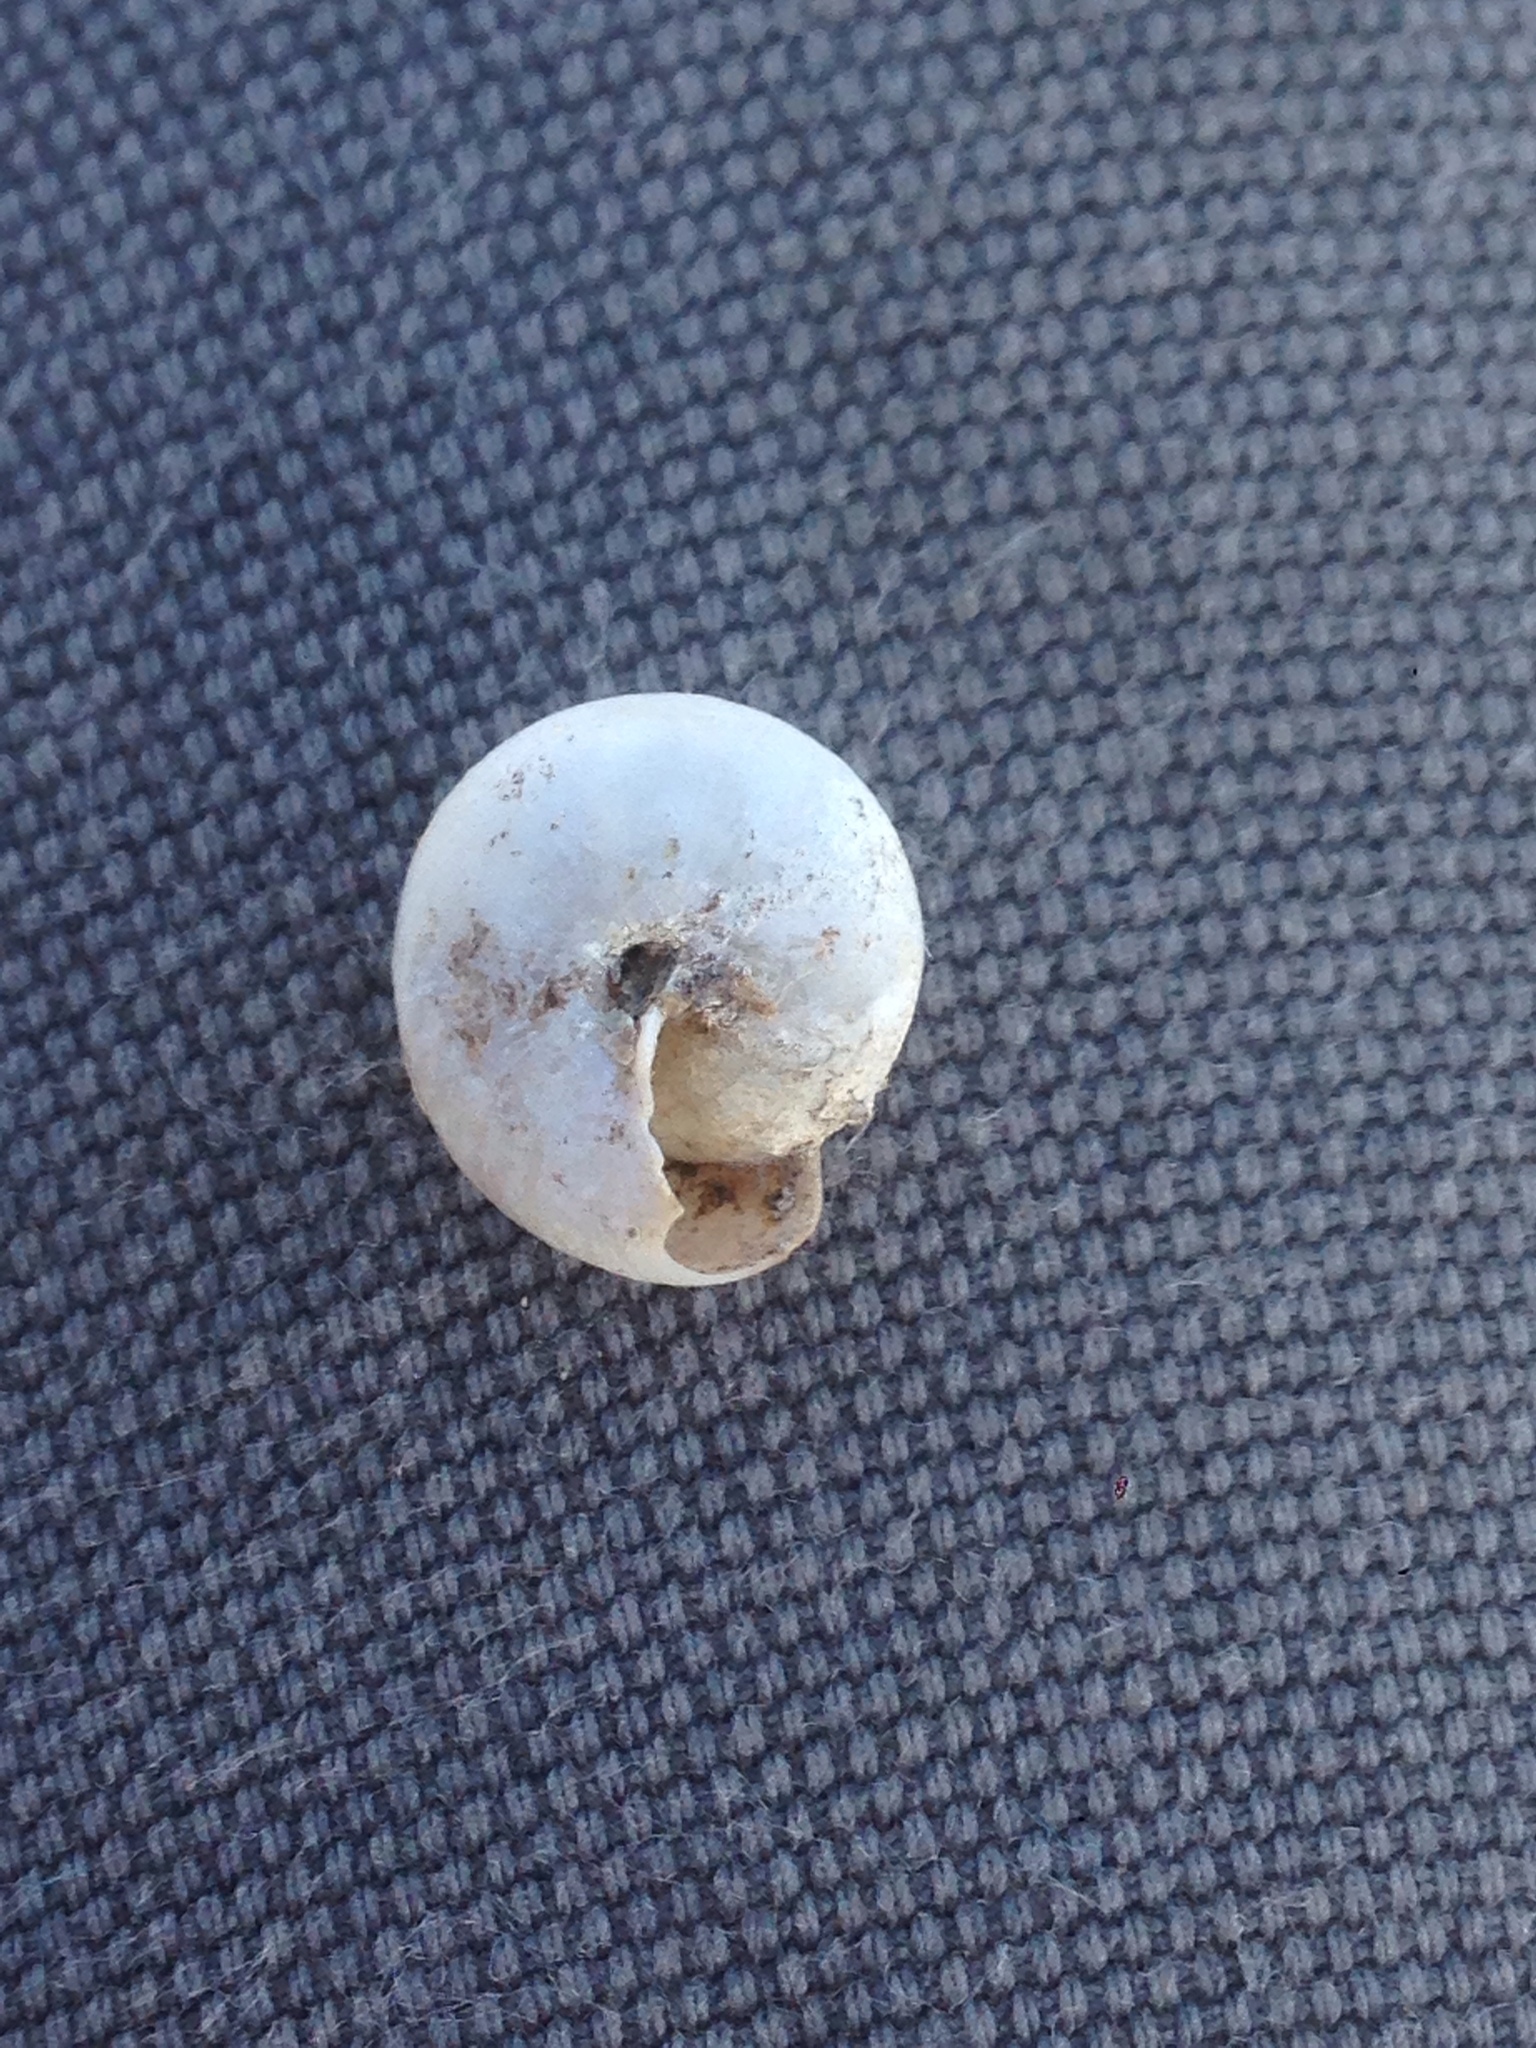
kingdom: Animalia
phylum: Mollusca
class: Gastropoda
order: Stylommatophora
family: Xanthonychidae
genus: Micrarionta
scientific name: Micrarionta facta
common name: Concentrated snail
